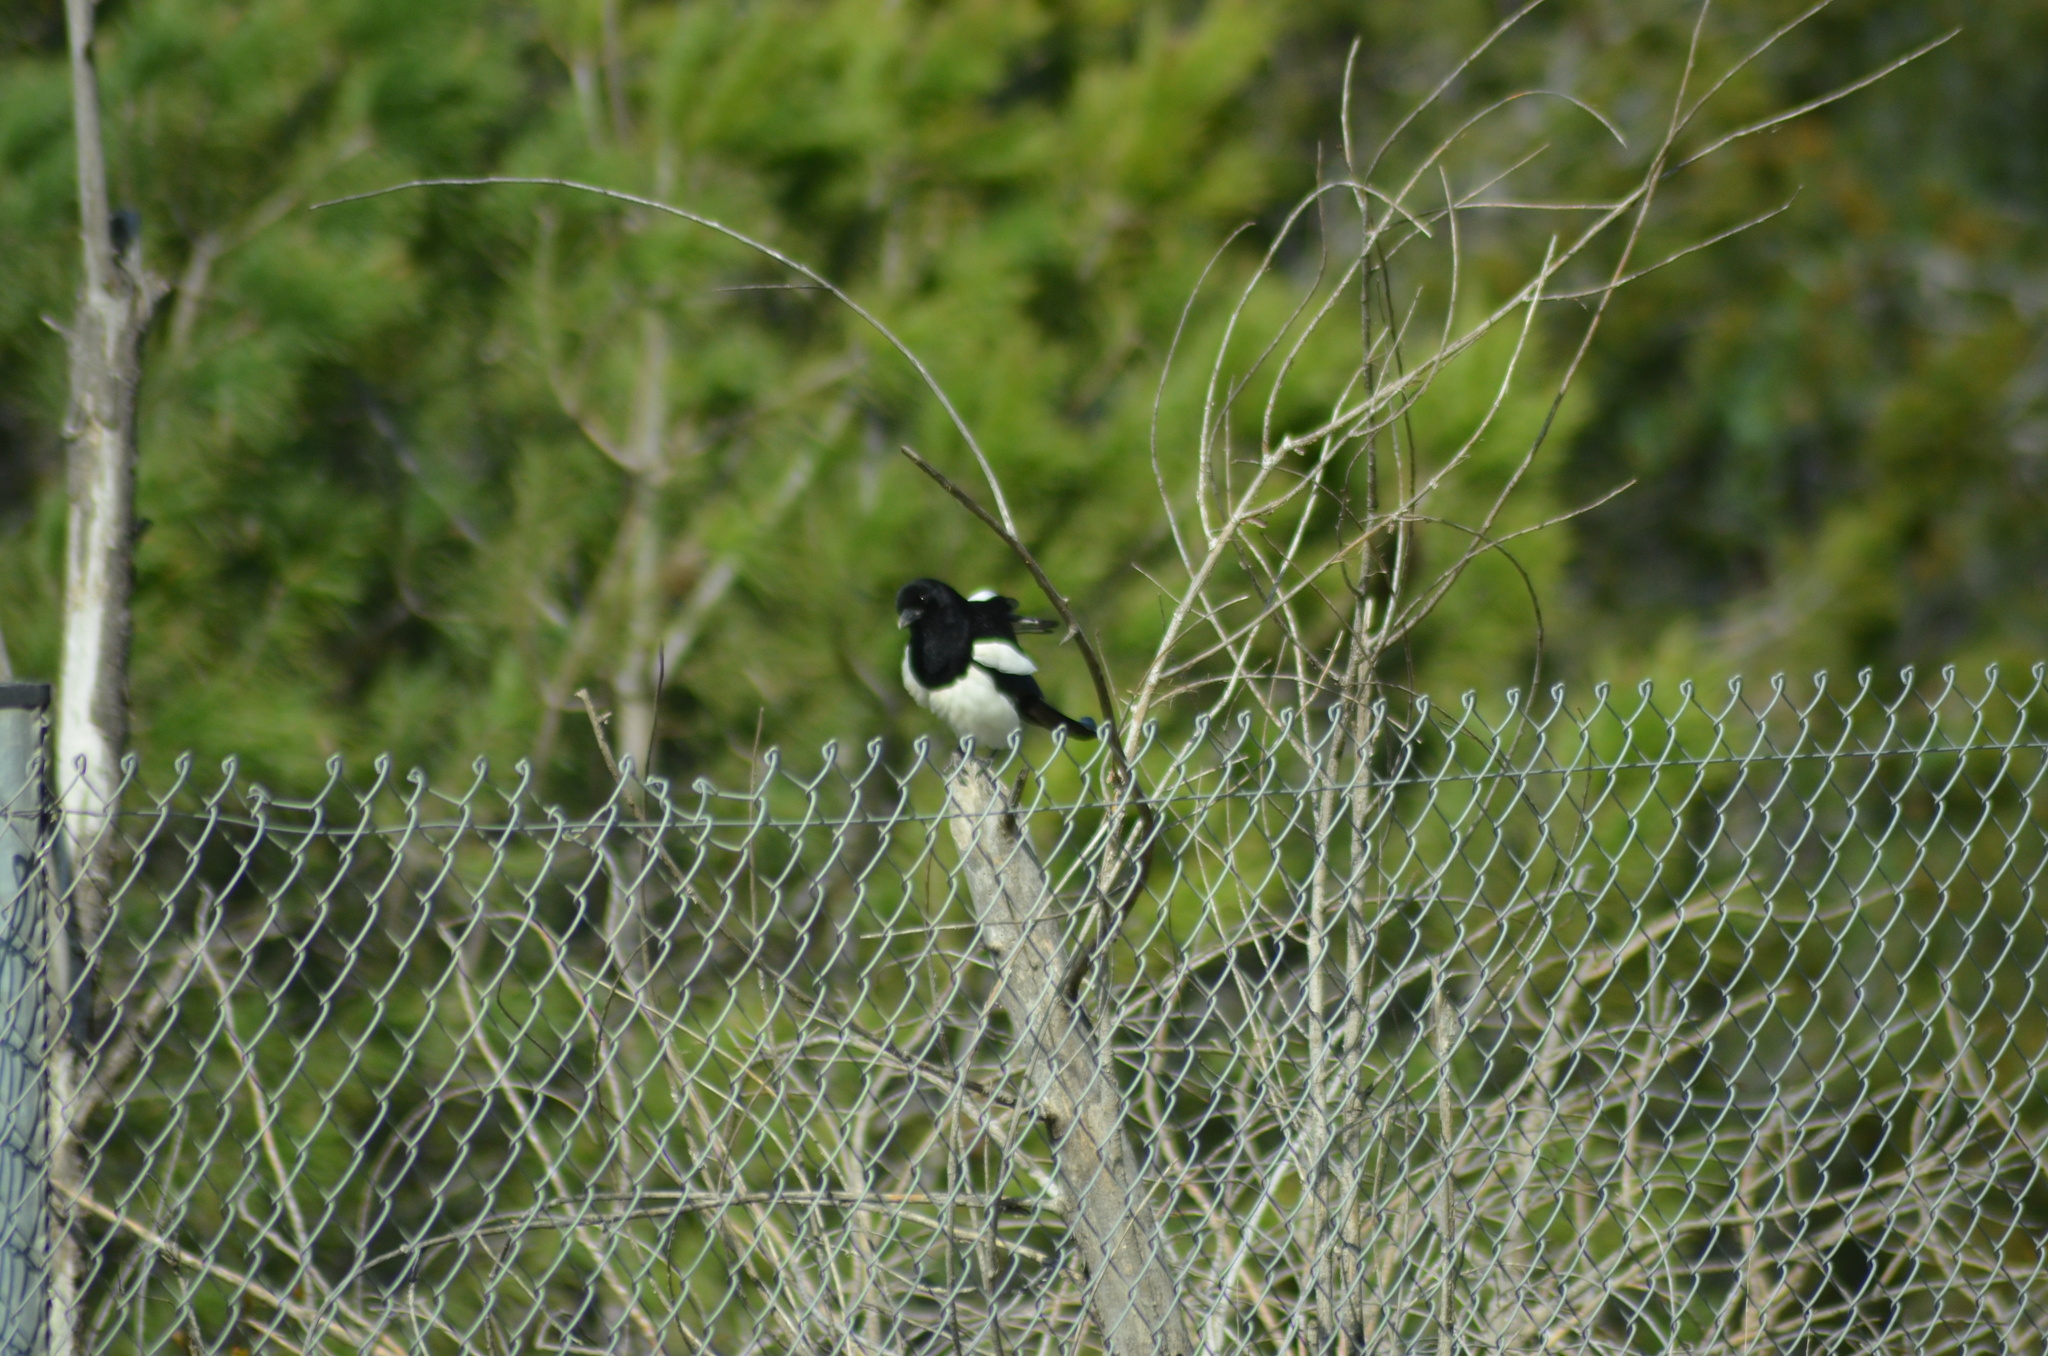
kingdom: Animalia
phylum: Chordata
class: Aves
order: Passeriformes
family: Corvidae
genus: Pica
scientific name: Pica pica
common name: Eurasian magpie
